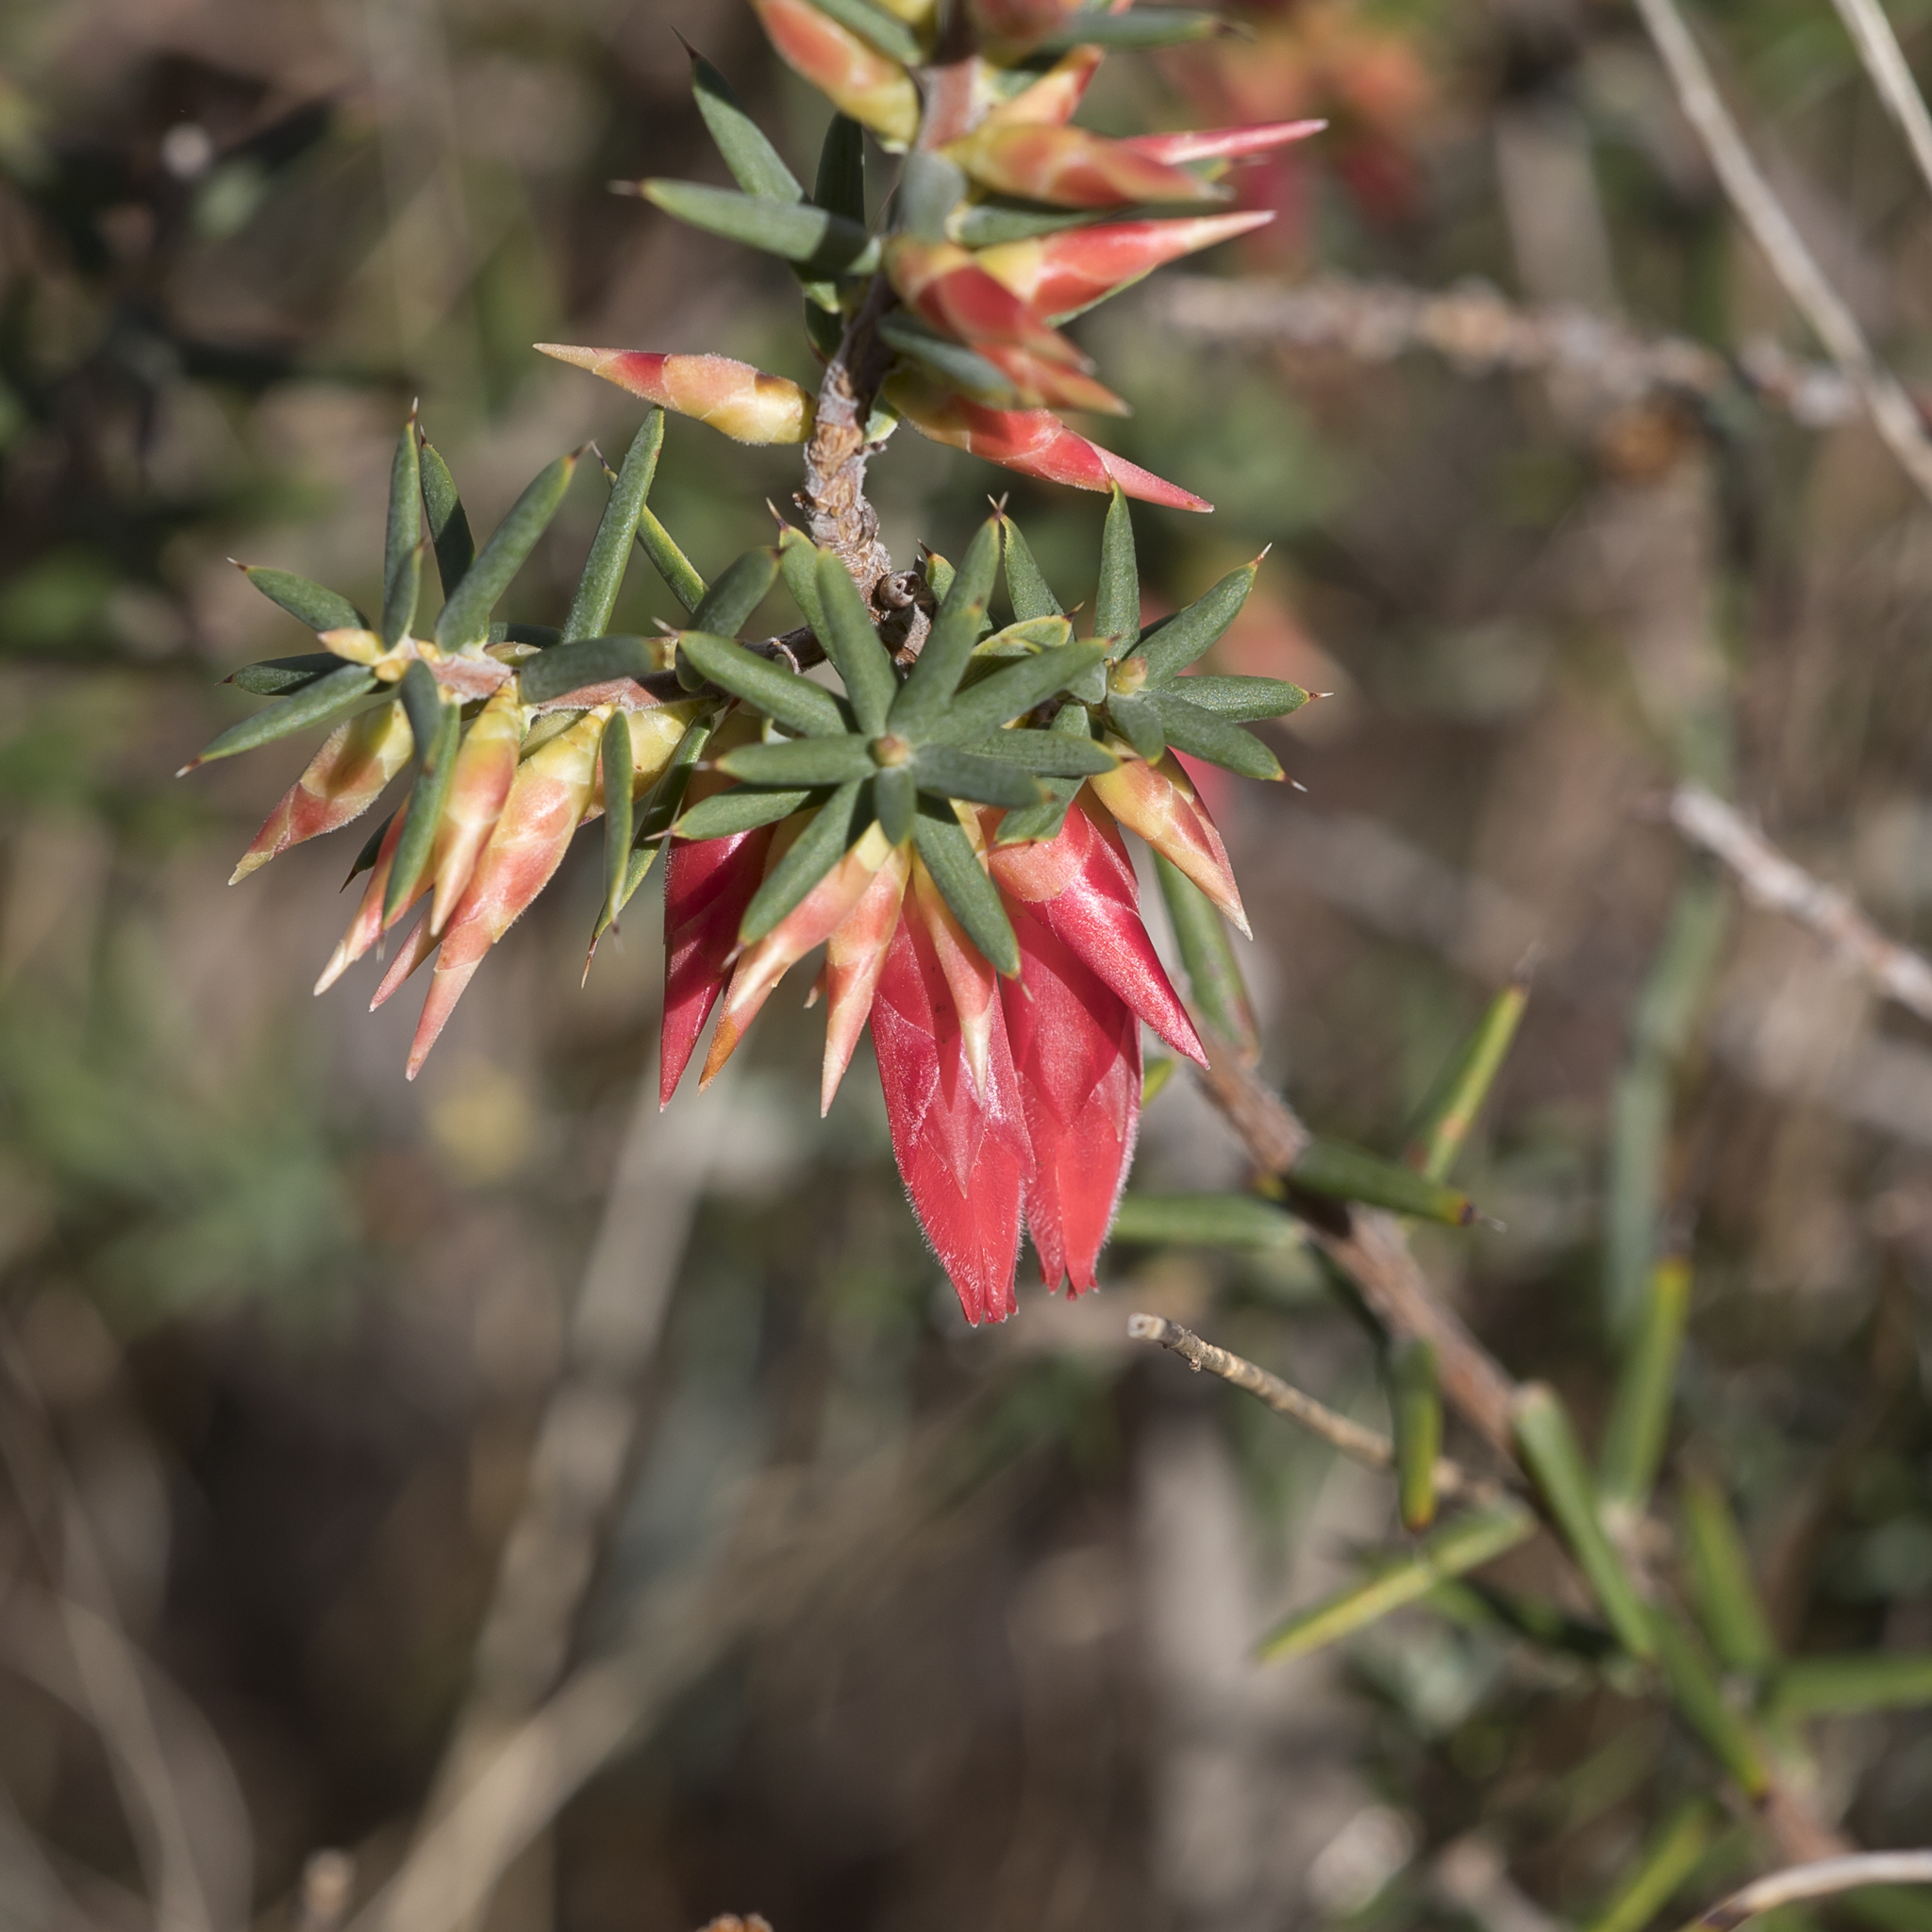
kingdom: Plantae
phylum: Tracheophyta
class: Magnoliopsida
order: Ericales
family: Ericaceae
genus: Stenanthera
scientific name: Stenanthera conostephioides
